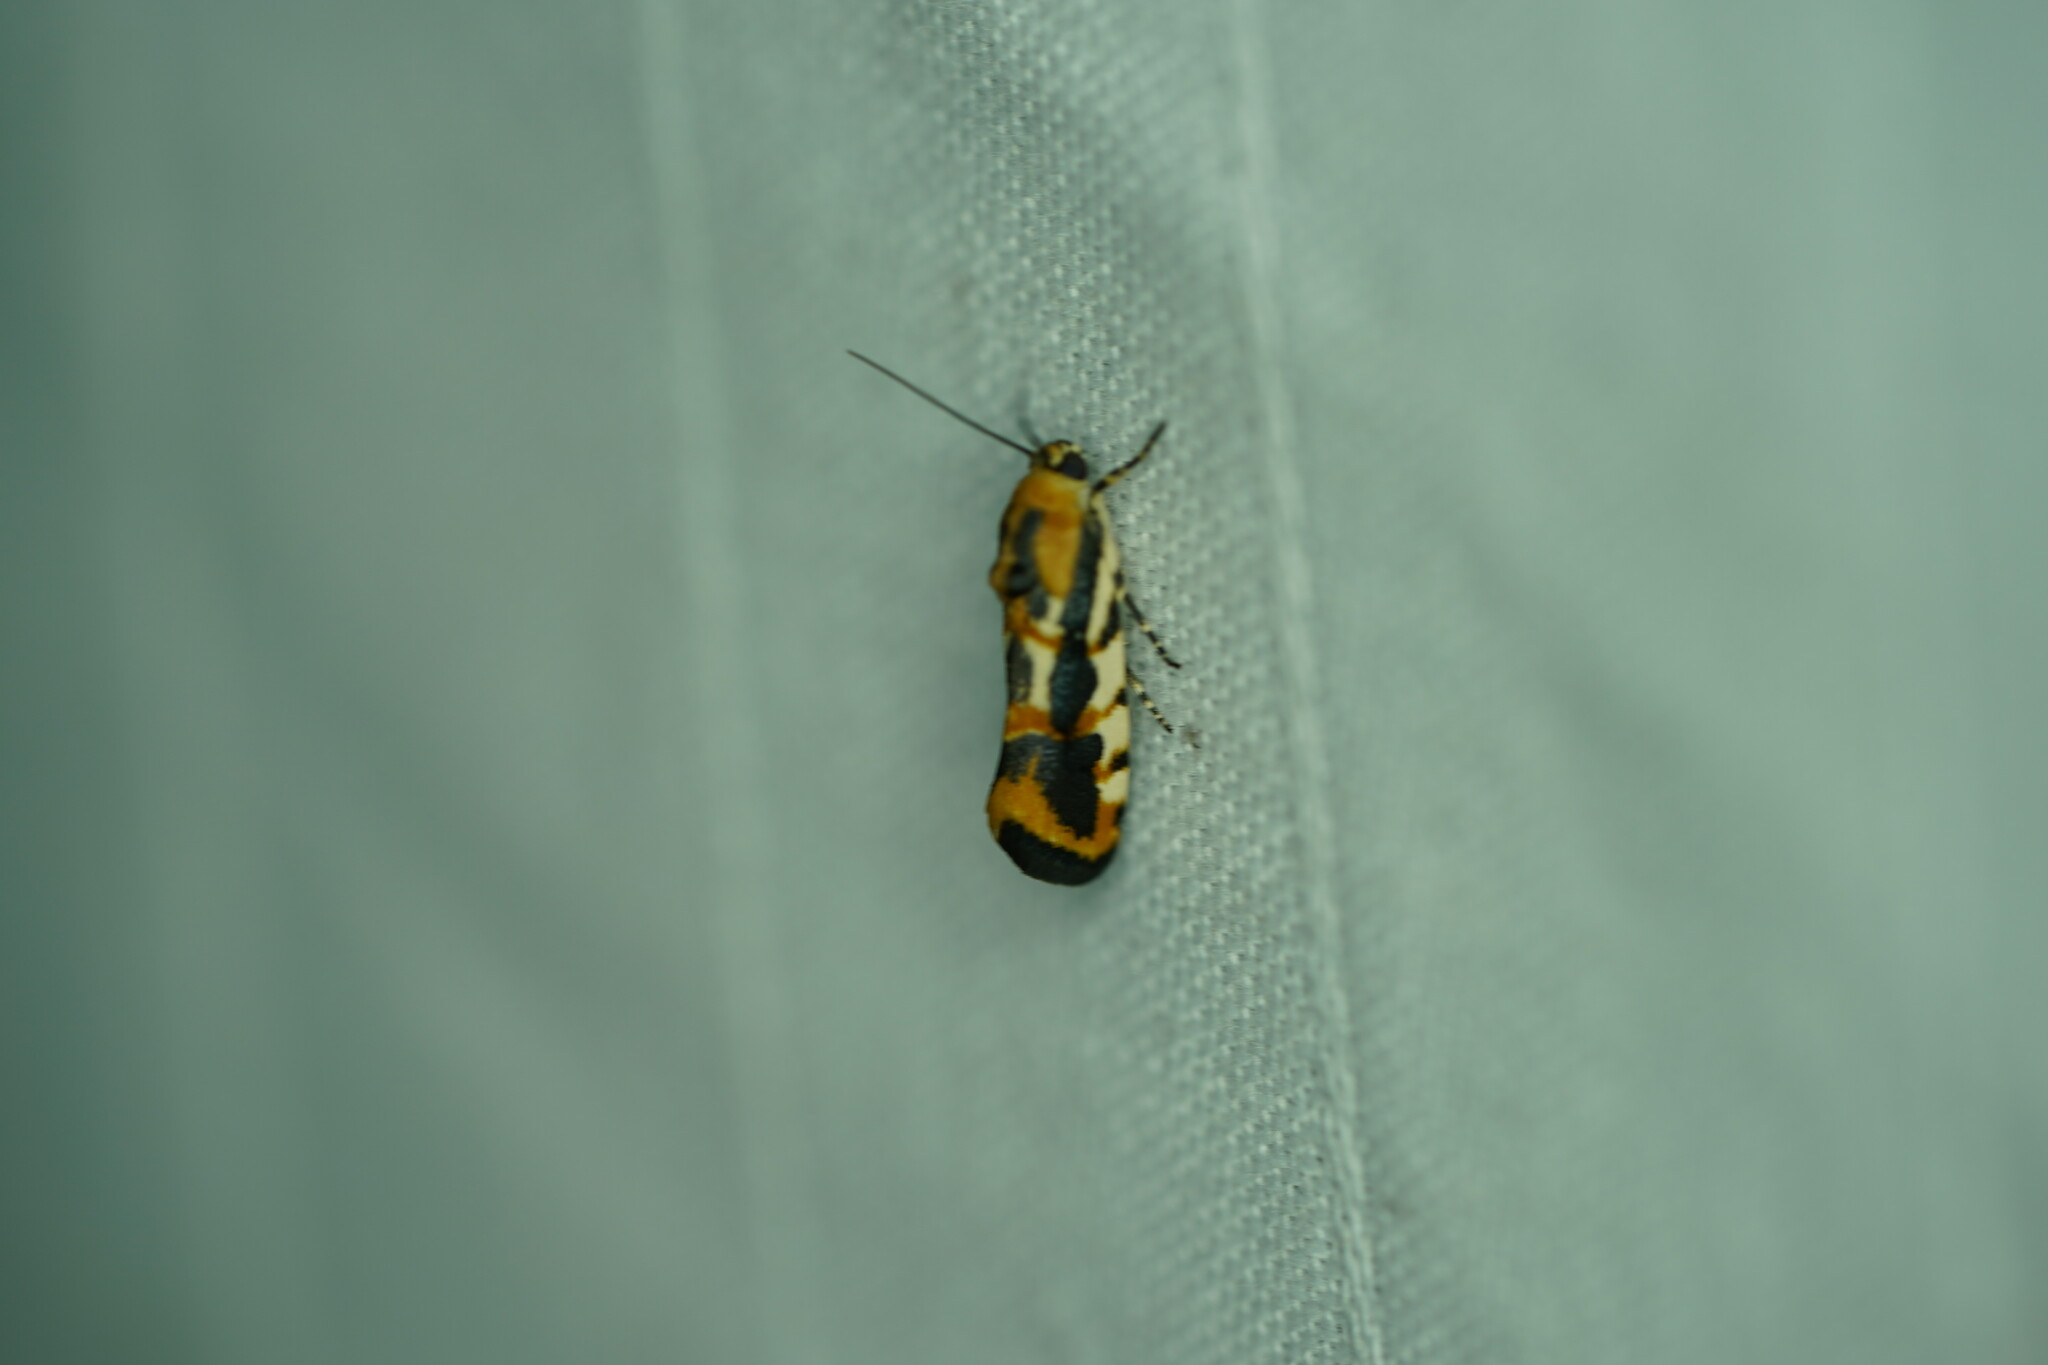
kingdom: Animalia
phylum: Arthropoda
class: Insecta
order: Lepidoptera
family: Noctuidae
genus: Acontia
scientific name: Acontia leo
